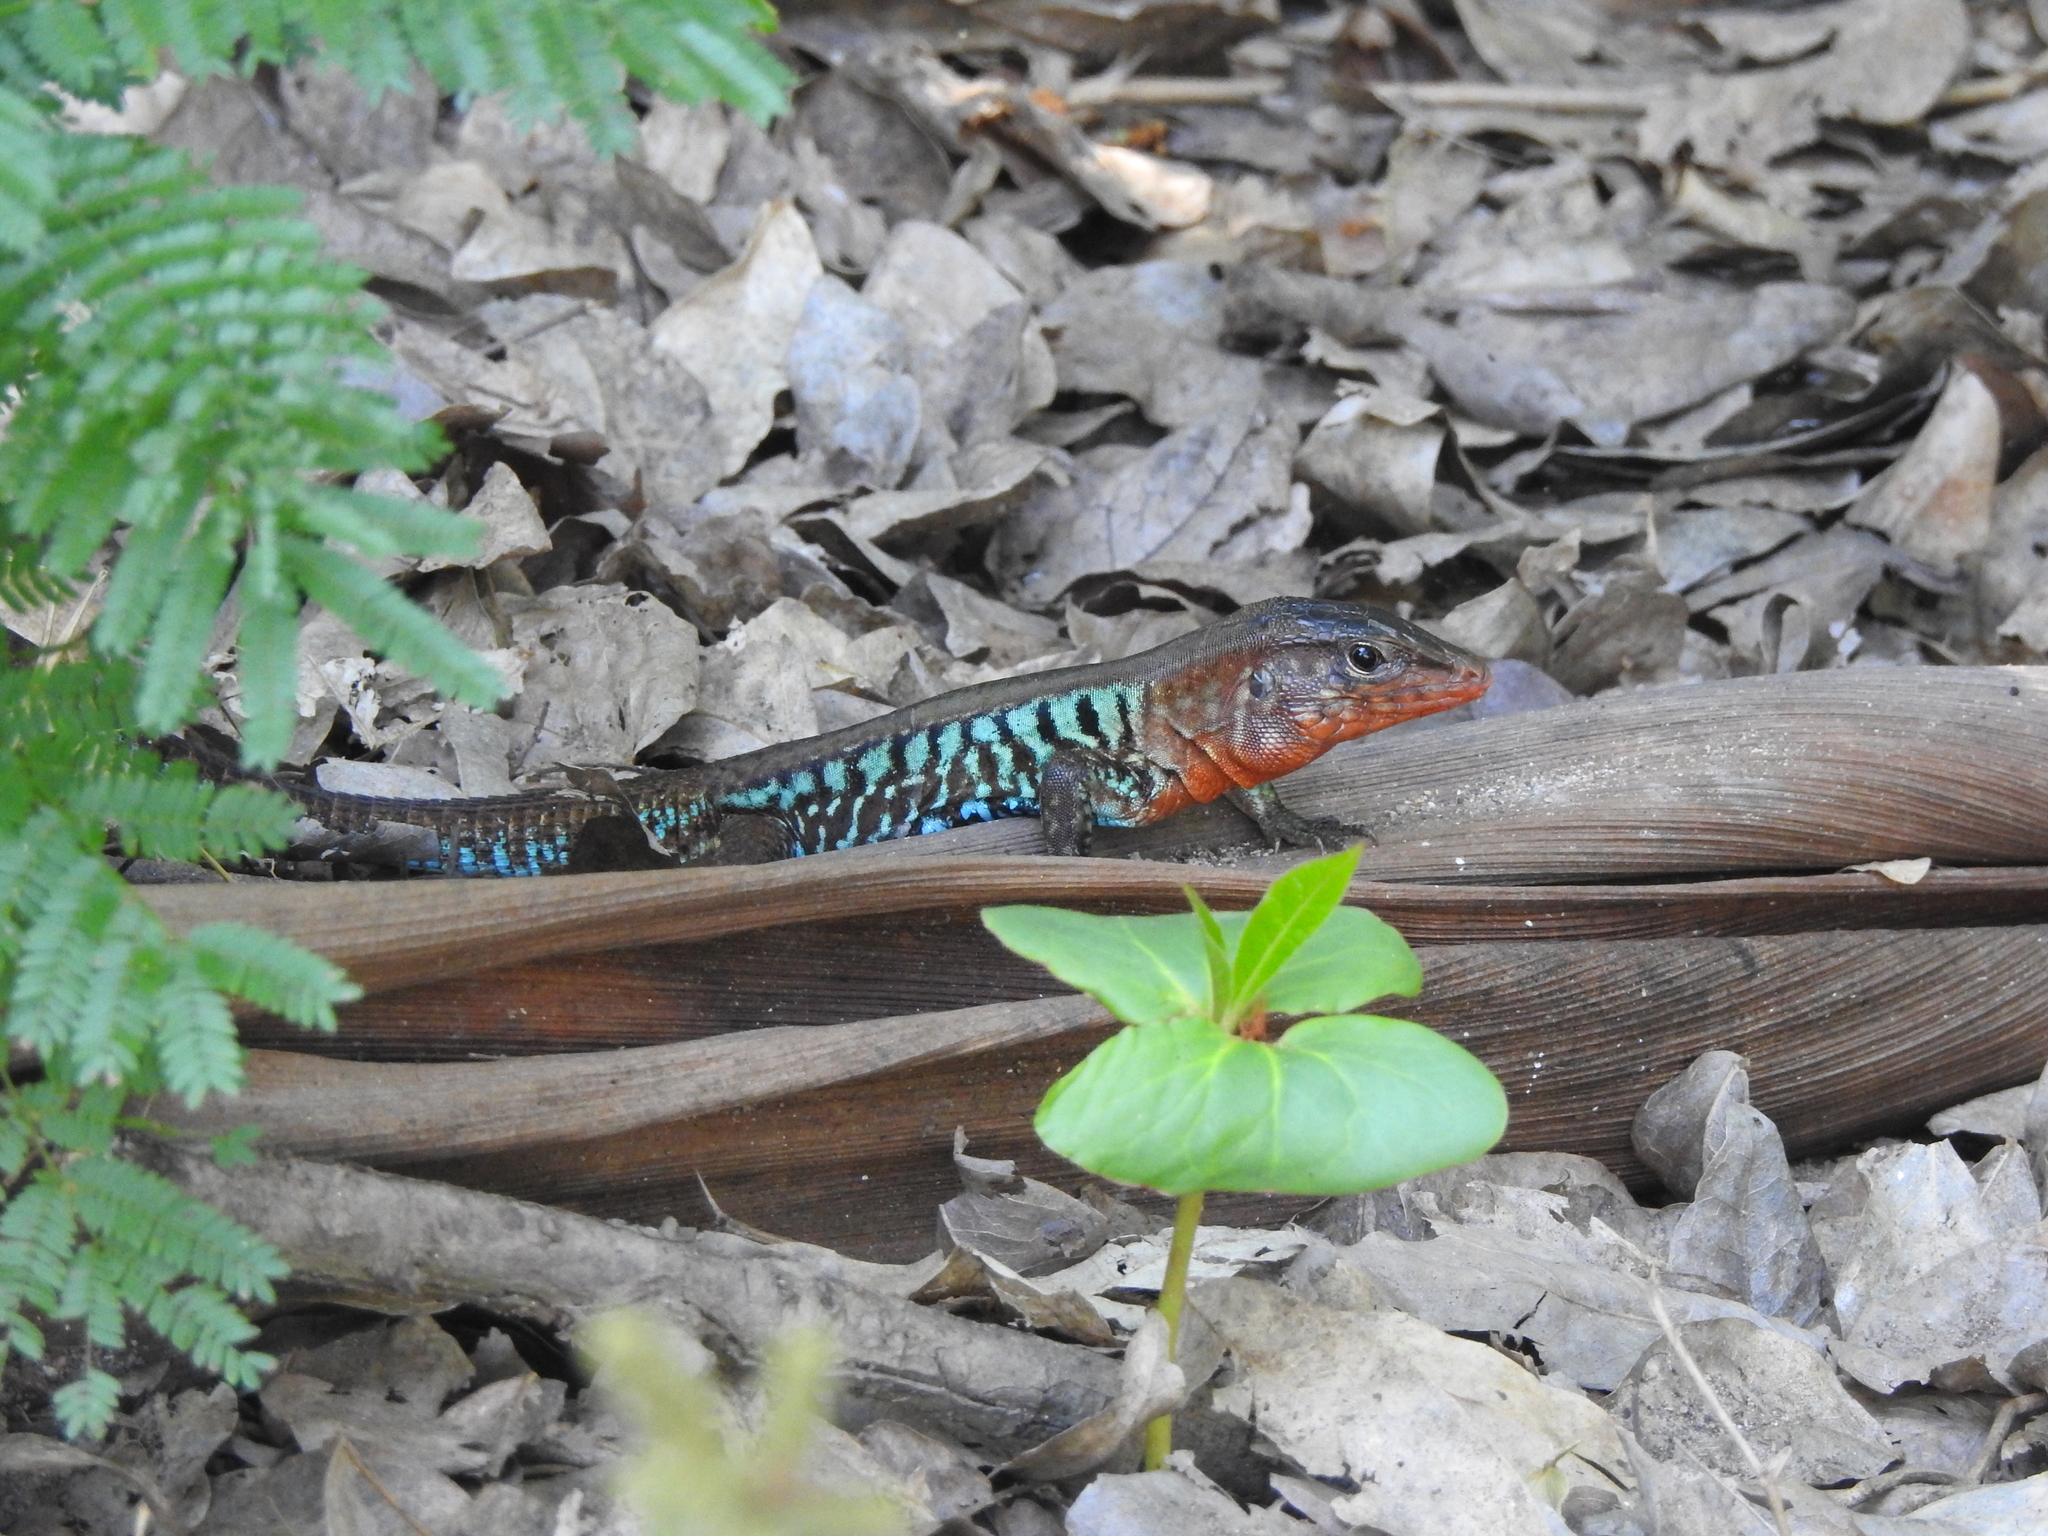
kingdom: Animalia
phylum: Chordata
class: Squamata
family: Teiidae
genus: Holcosus
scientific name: Holcosus undulatus
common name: Rainbow ameiva
